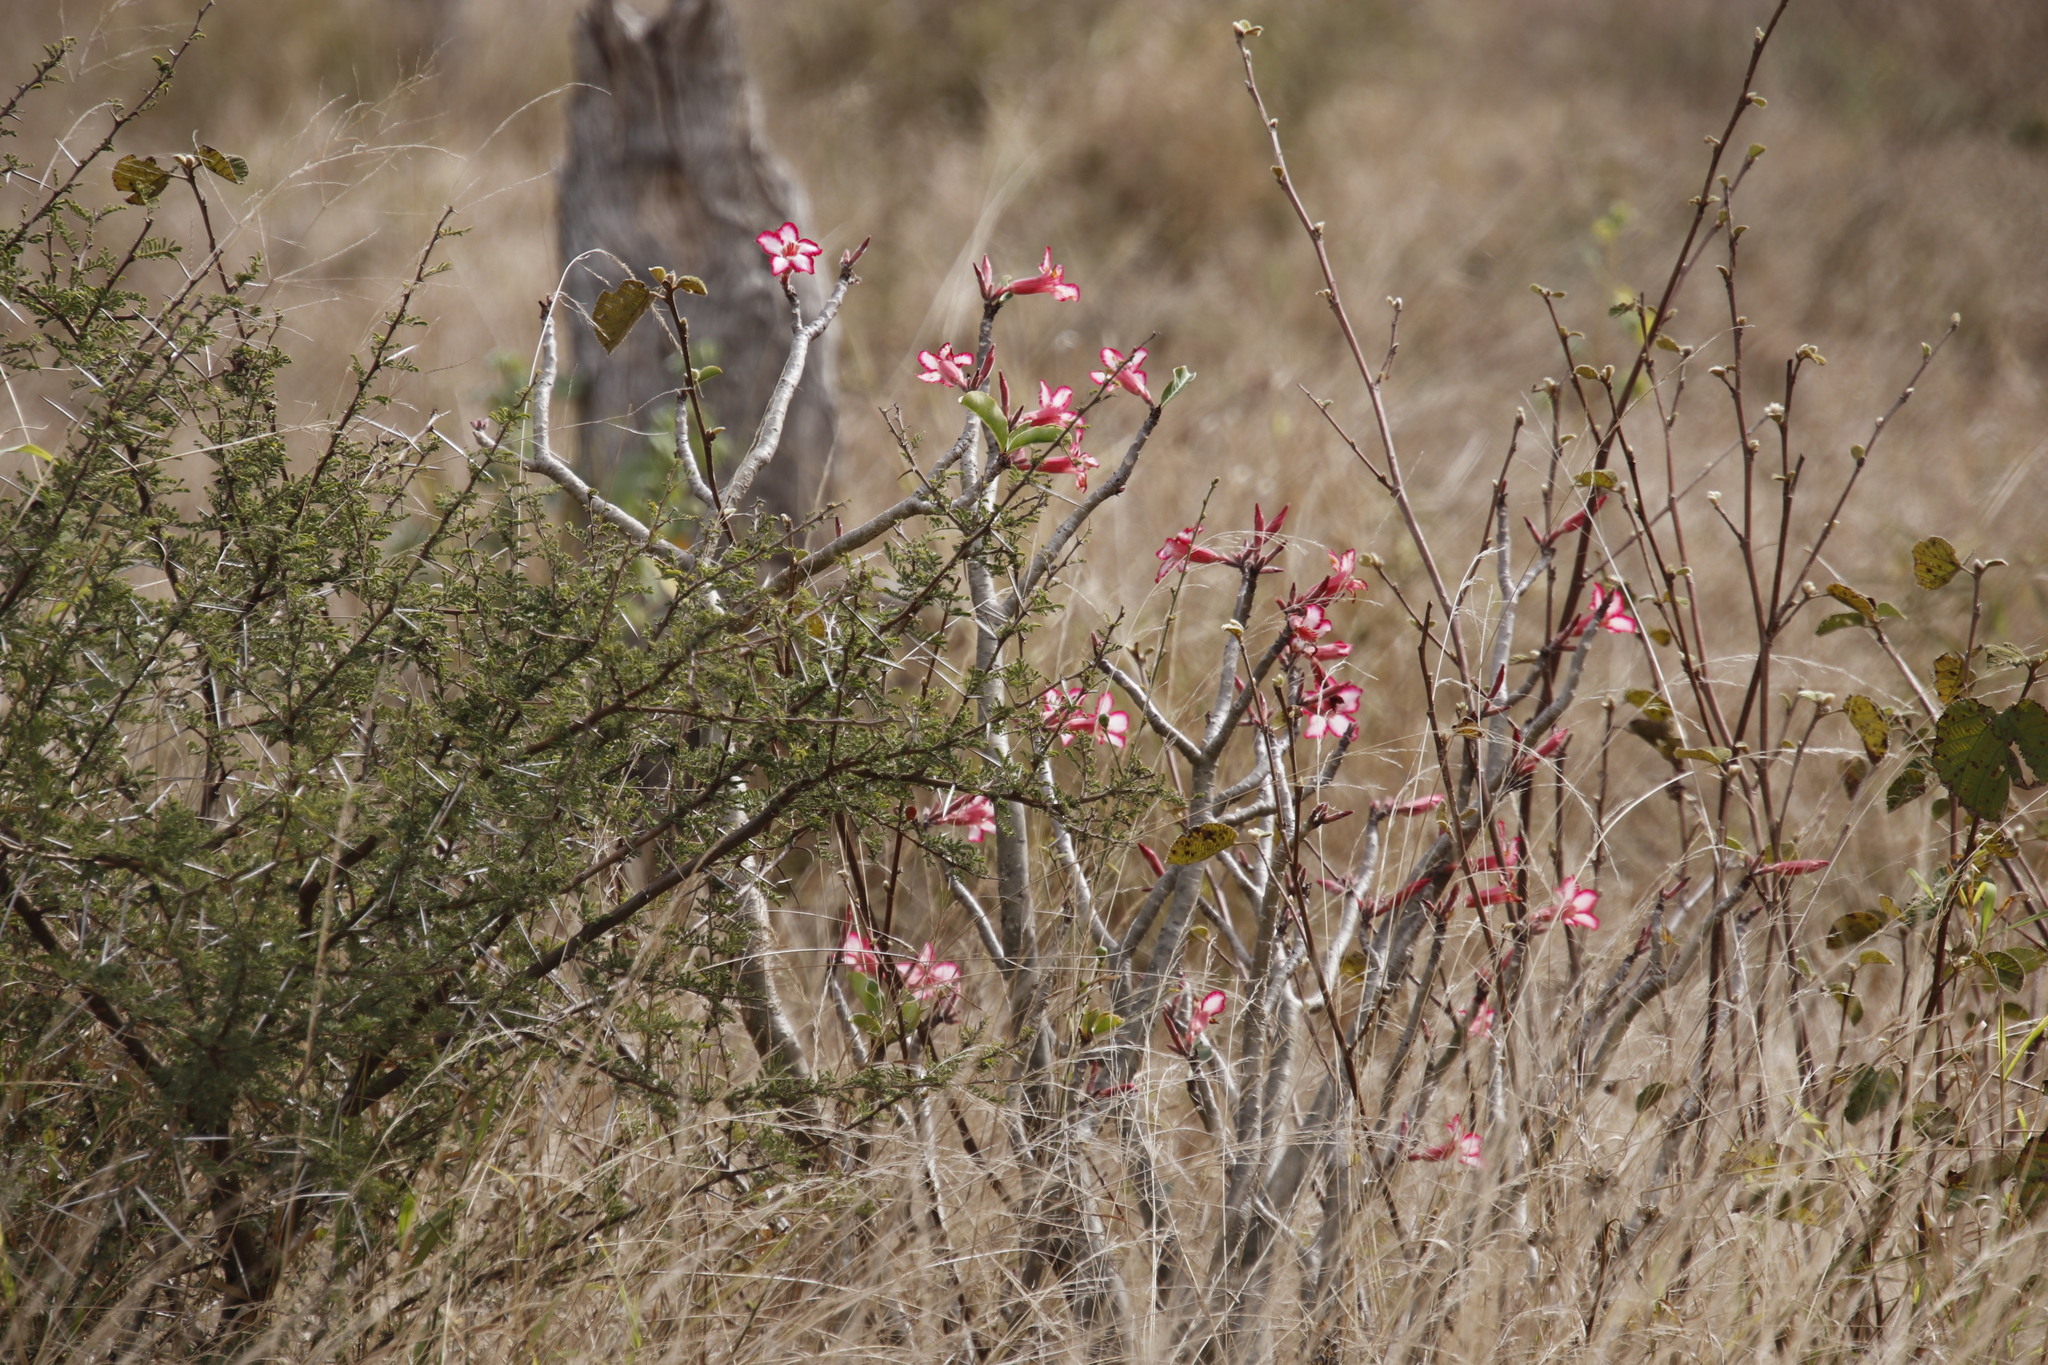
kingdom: Plantae
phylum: Tracheophyta
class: Magnoliopsida
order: Gentianales
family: Apocynaceae
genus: Adenium
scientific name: Adenium obesum
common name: Desert-rose
